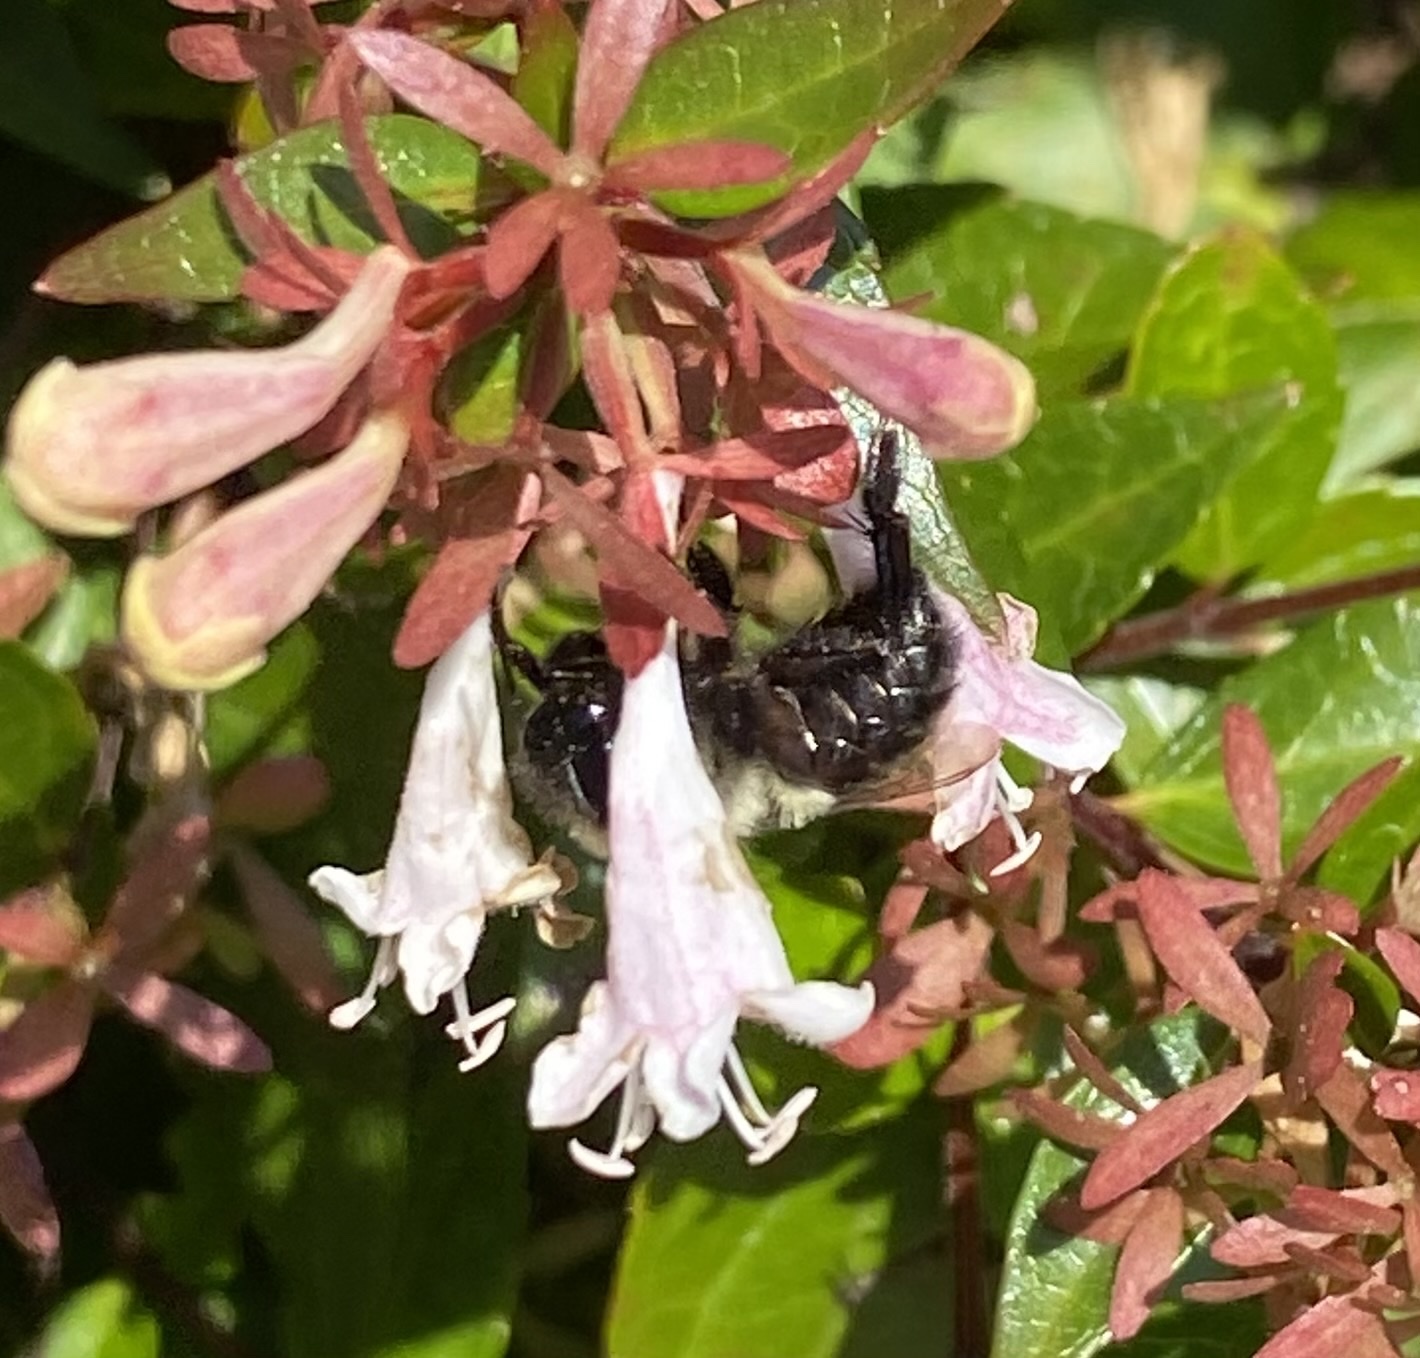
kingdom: Animalia
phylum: Arthropoda
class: Insecta
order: Hymenoptera
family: Apidae
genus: Bombus
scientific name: Bombus impatiens
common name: Common eastern bumble bee
